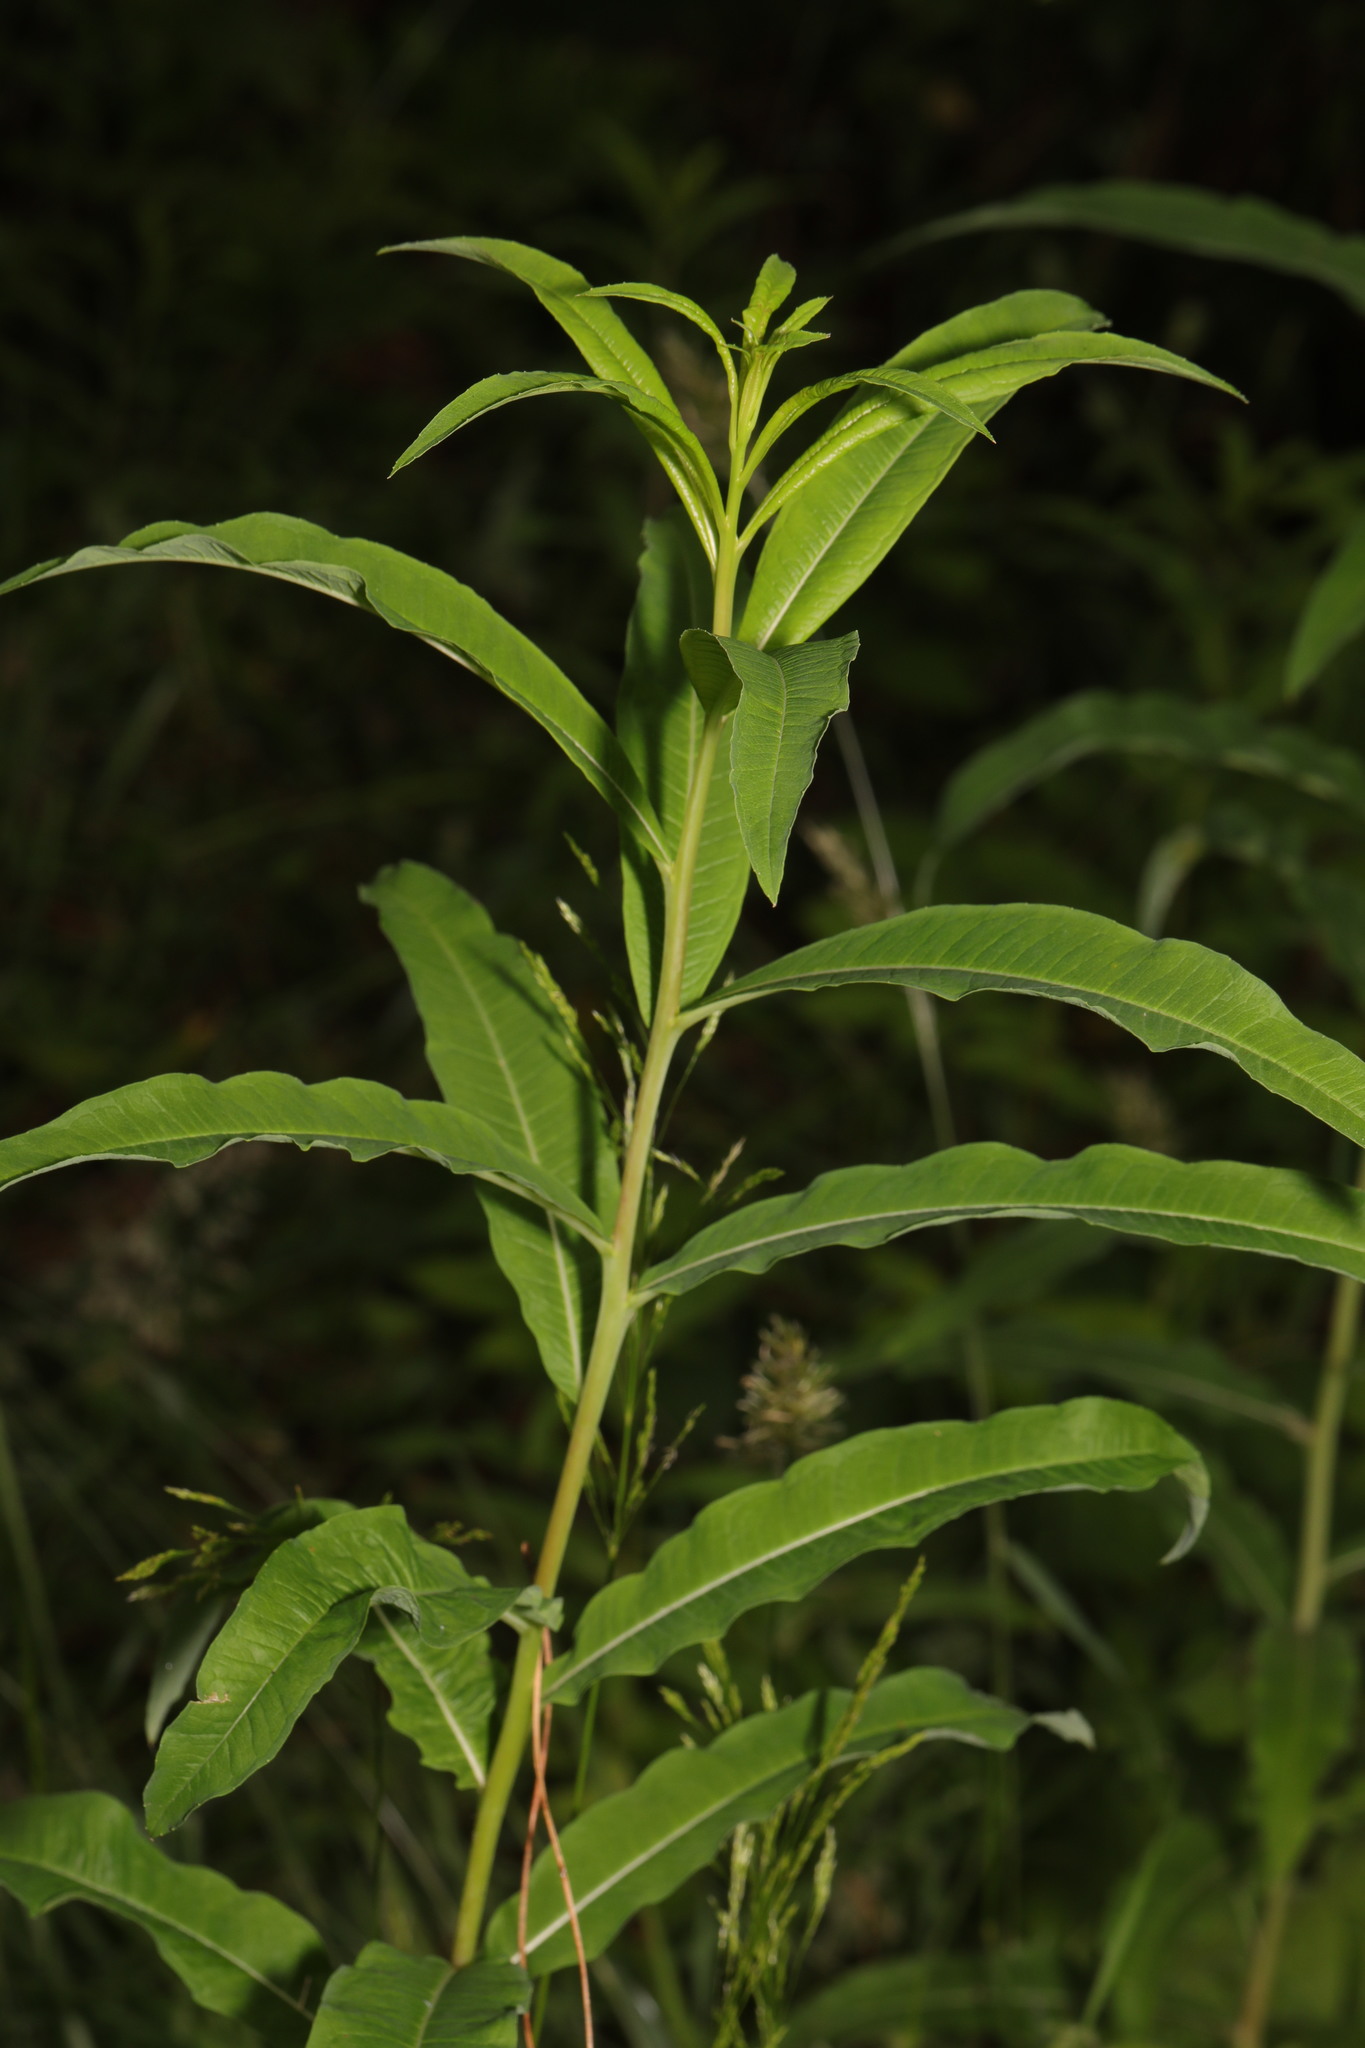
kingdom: Plantae
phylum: Tracheophyta
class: Magnoliopsida
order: Myrtales
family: Onagraceae
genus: Chamaenerion
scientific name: Chamaenerion angustifolium
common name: Fireweed
